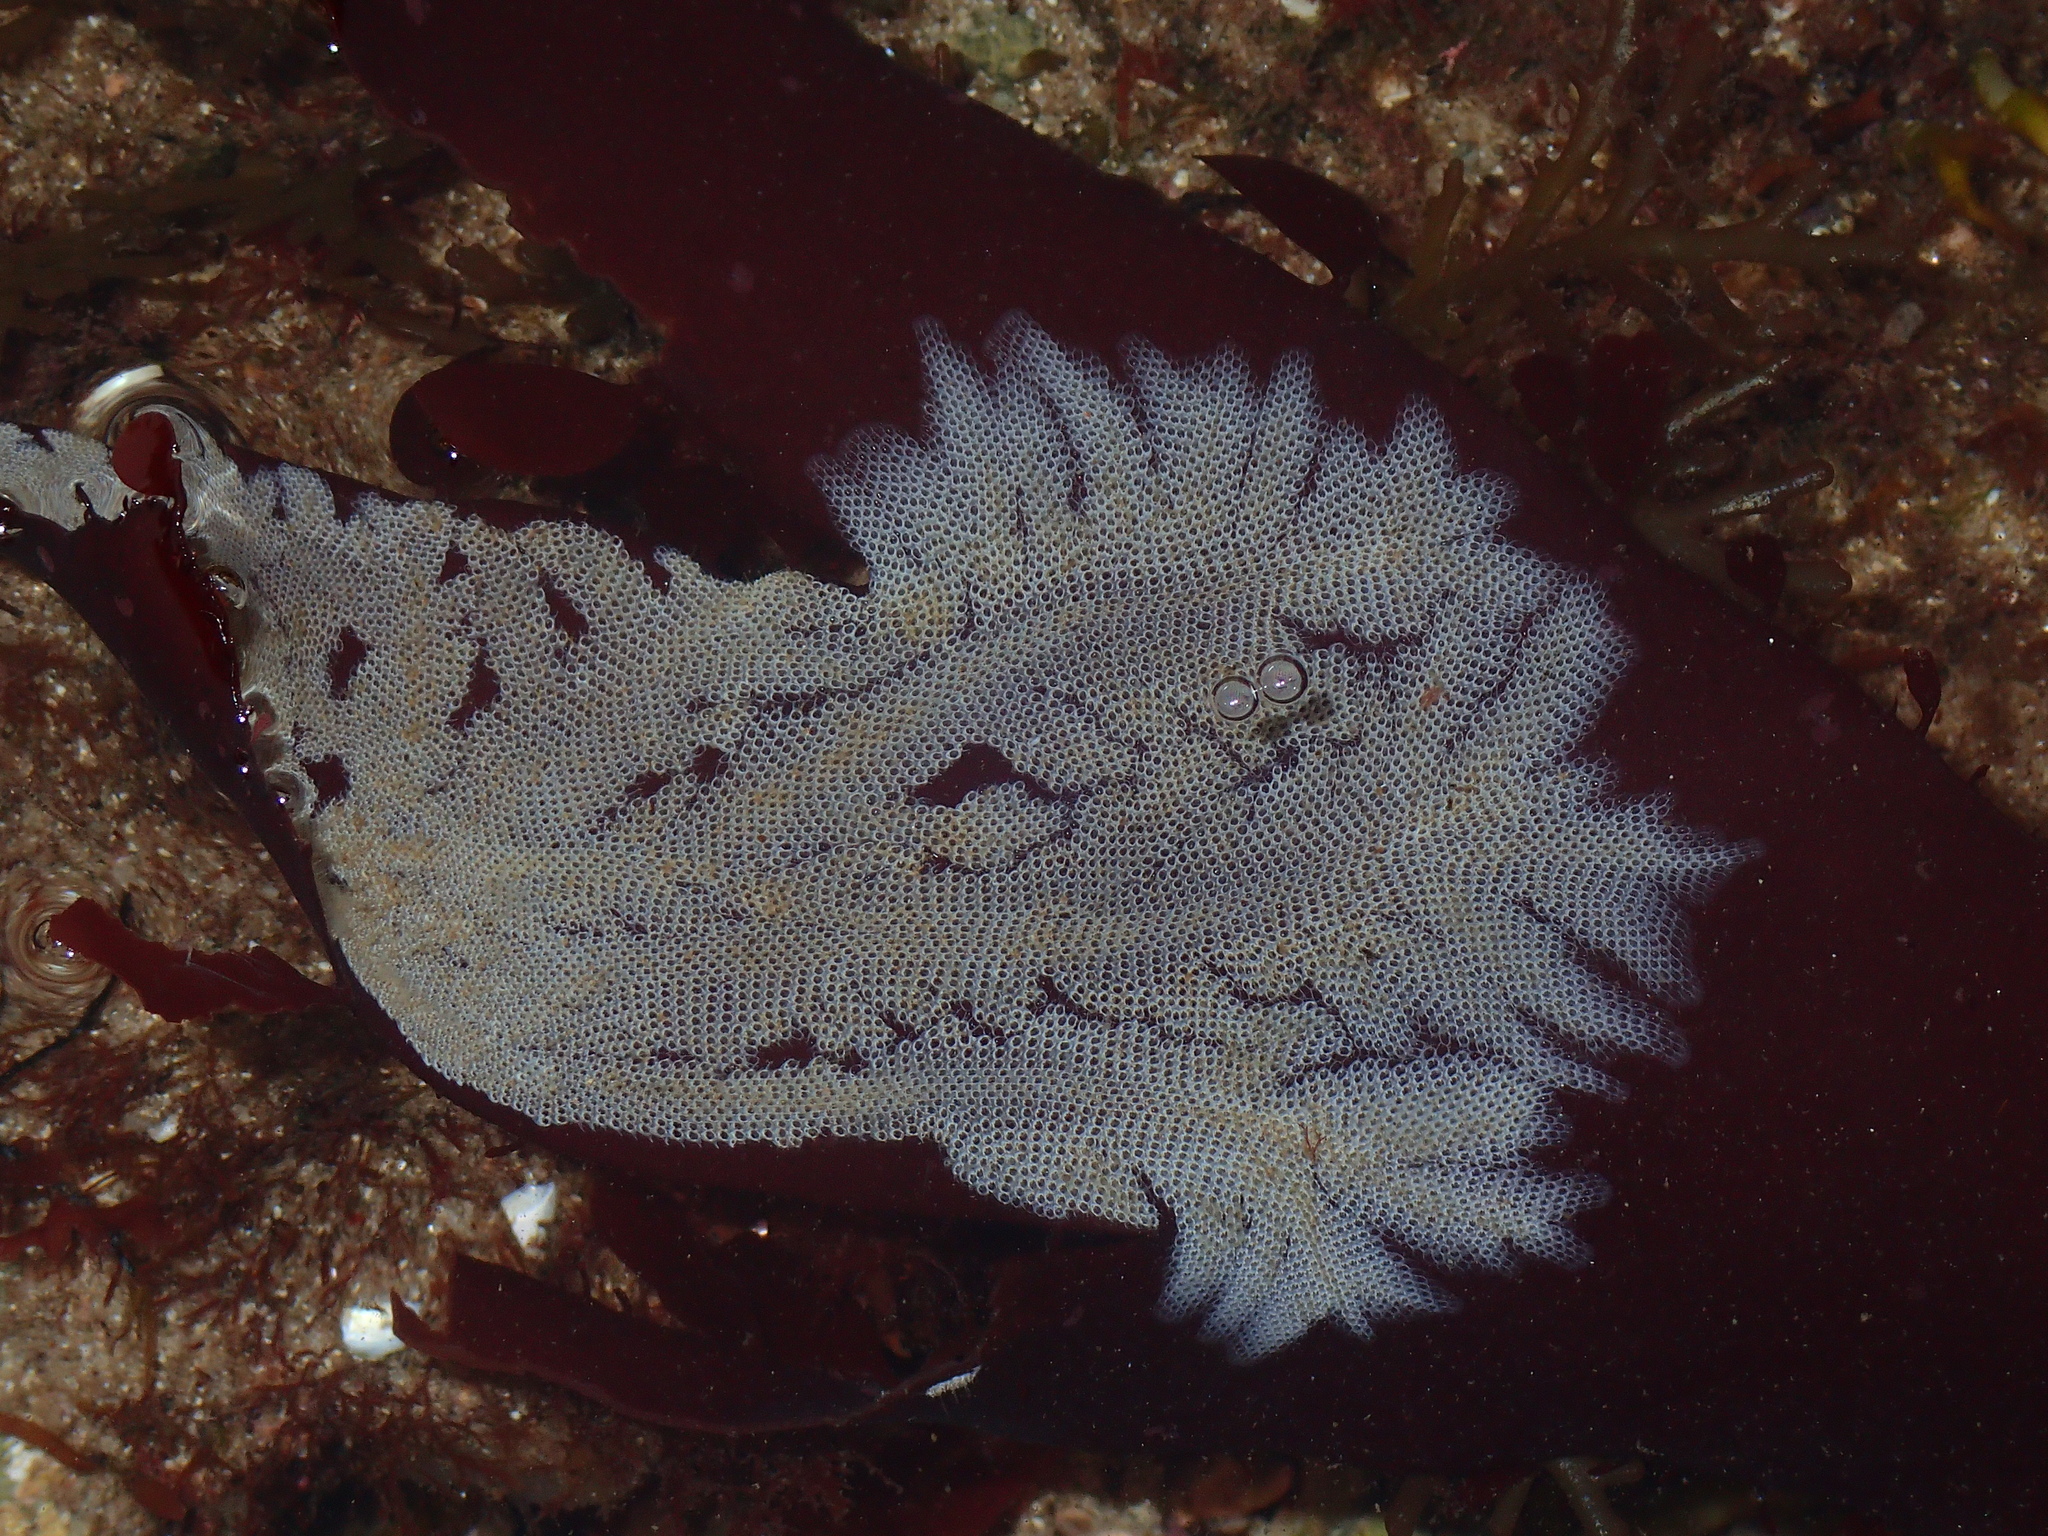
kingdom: Animalia
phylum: Bryozoa
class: Gymnolaemata
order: Cheilostomatida
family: Electridae
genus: Electra
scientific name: Electra pilosa
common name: Hairy sea-mat
